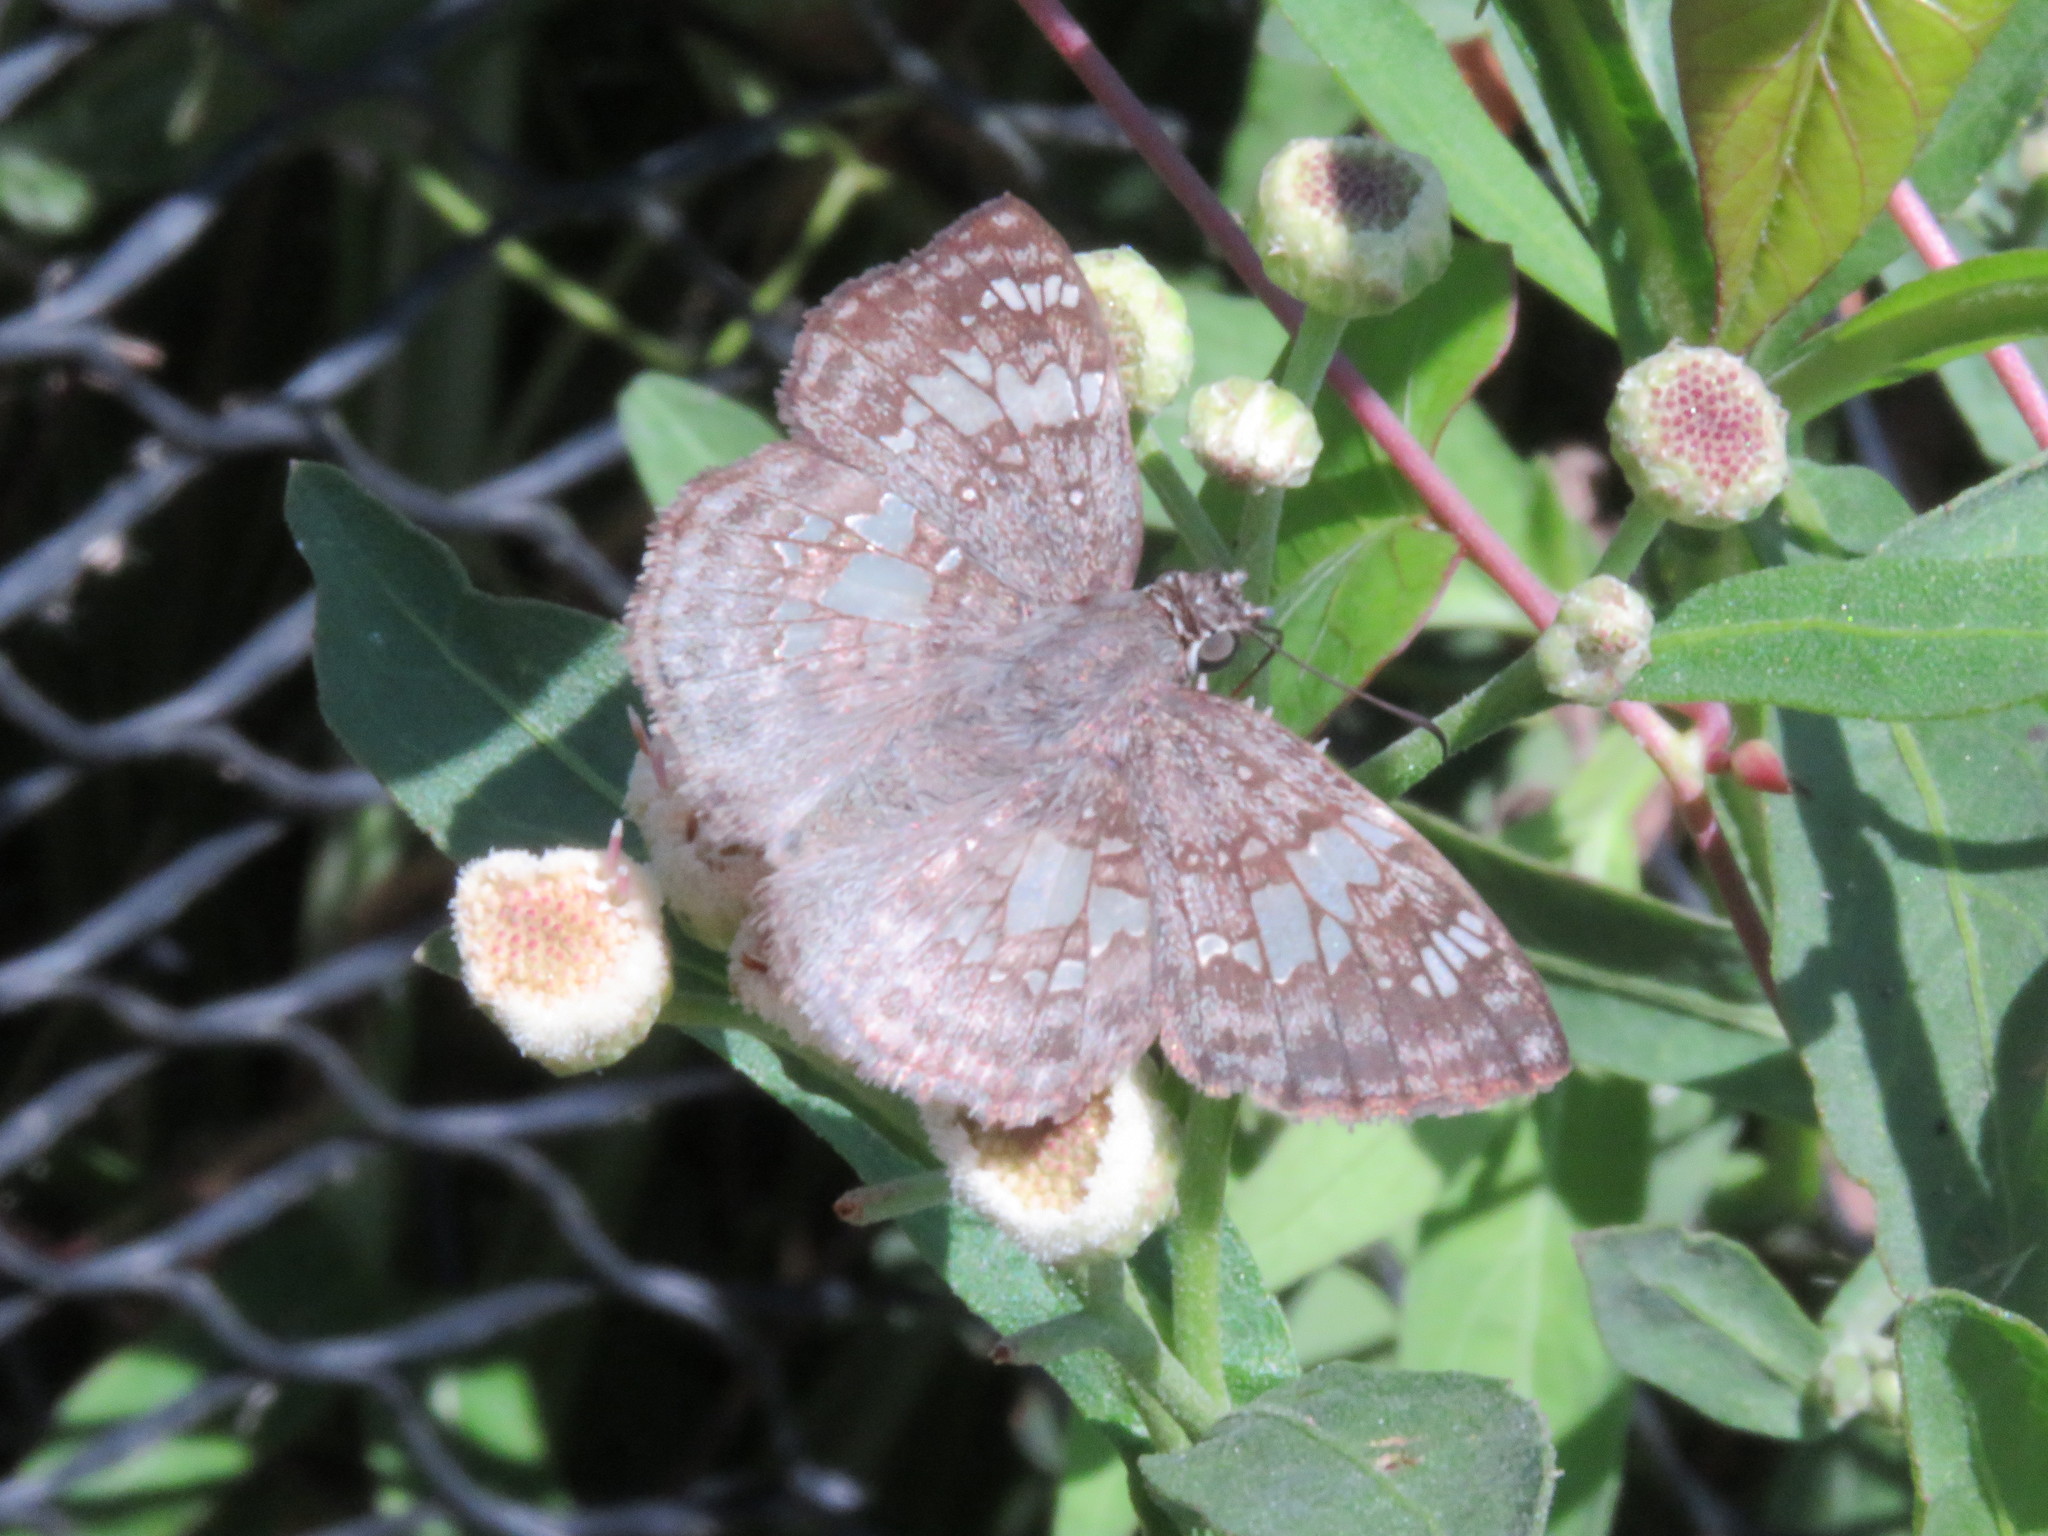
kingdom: Animalia
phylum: Arthropoda
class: Insecta
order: Lepidoptera
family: Hesperiidae
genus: Xenophanes
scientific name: Xenophanes tryxus
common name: Glassy-winged skipper
